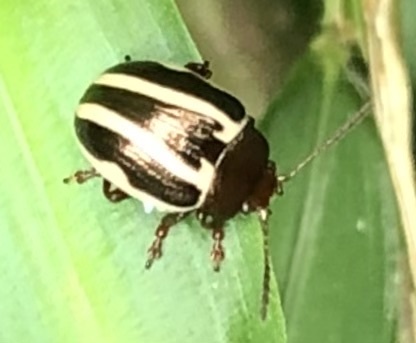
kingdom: Animalia
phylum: Arthropoda
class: Insecta
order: Coleoptera
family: Chrysomelidae
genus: Calligrapha
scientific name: Calligrapha bidenticola
